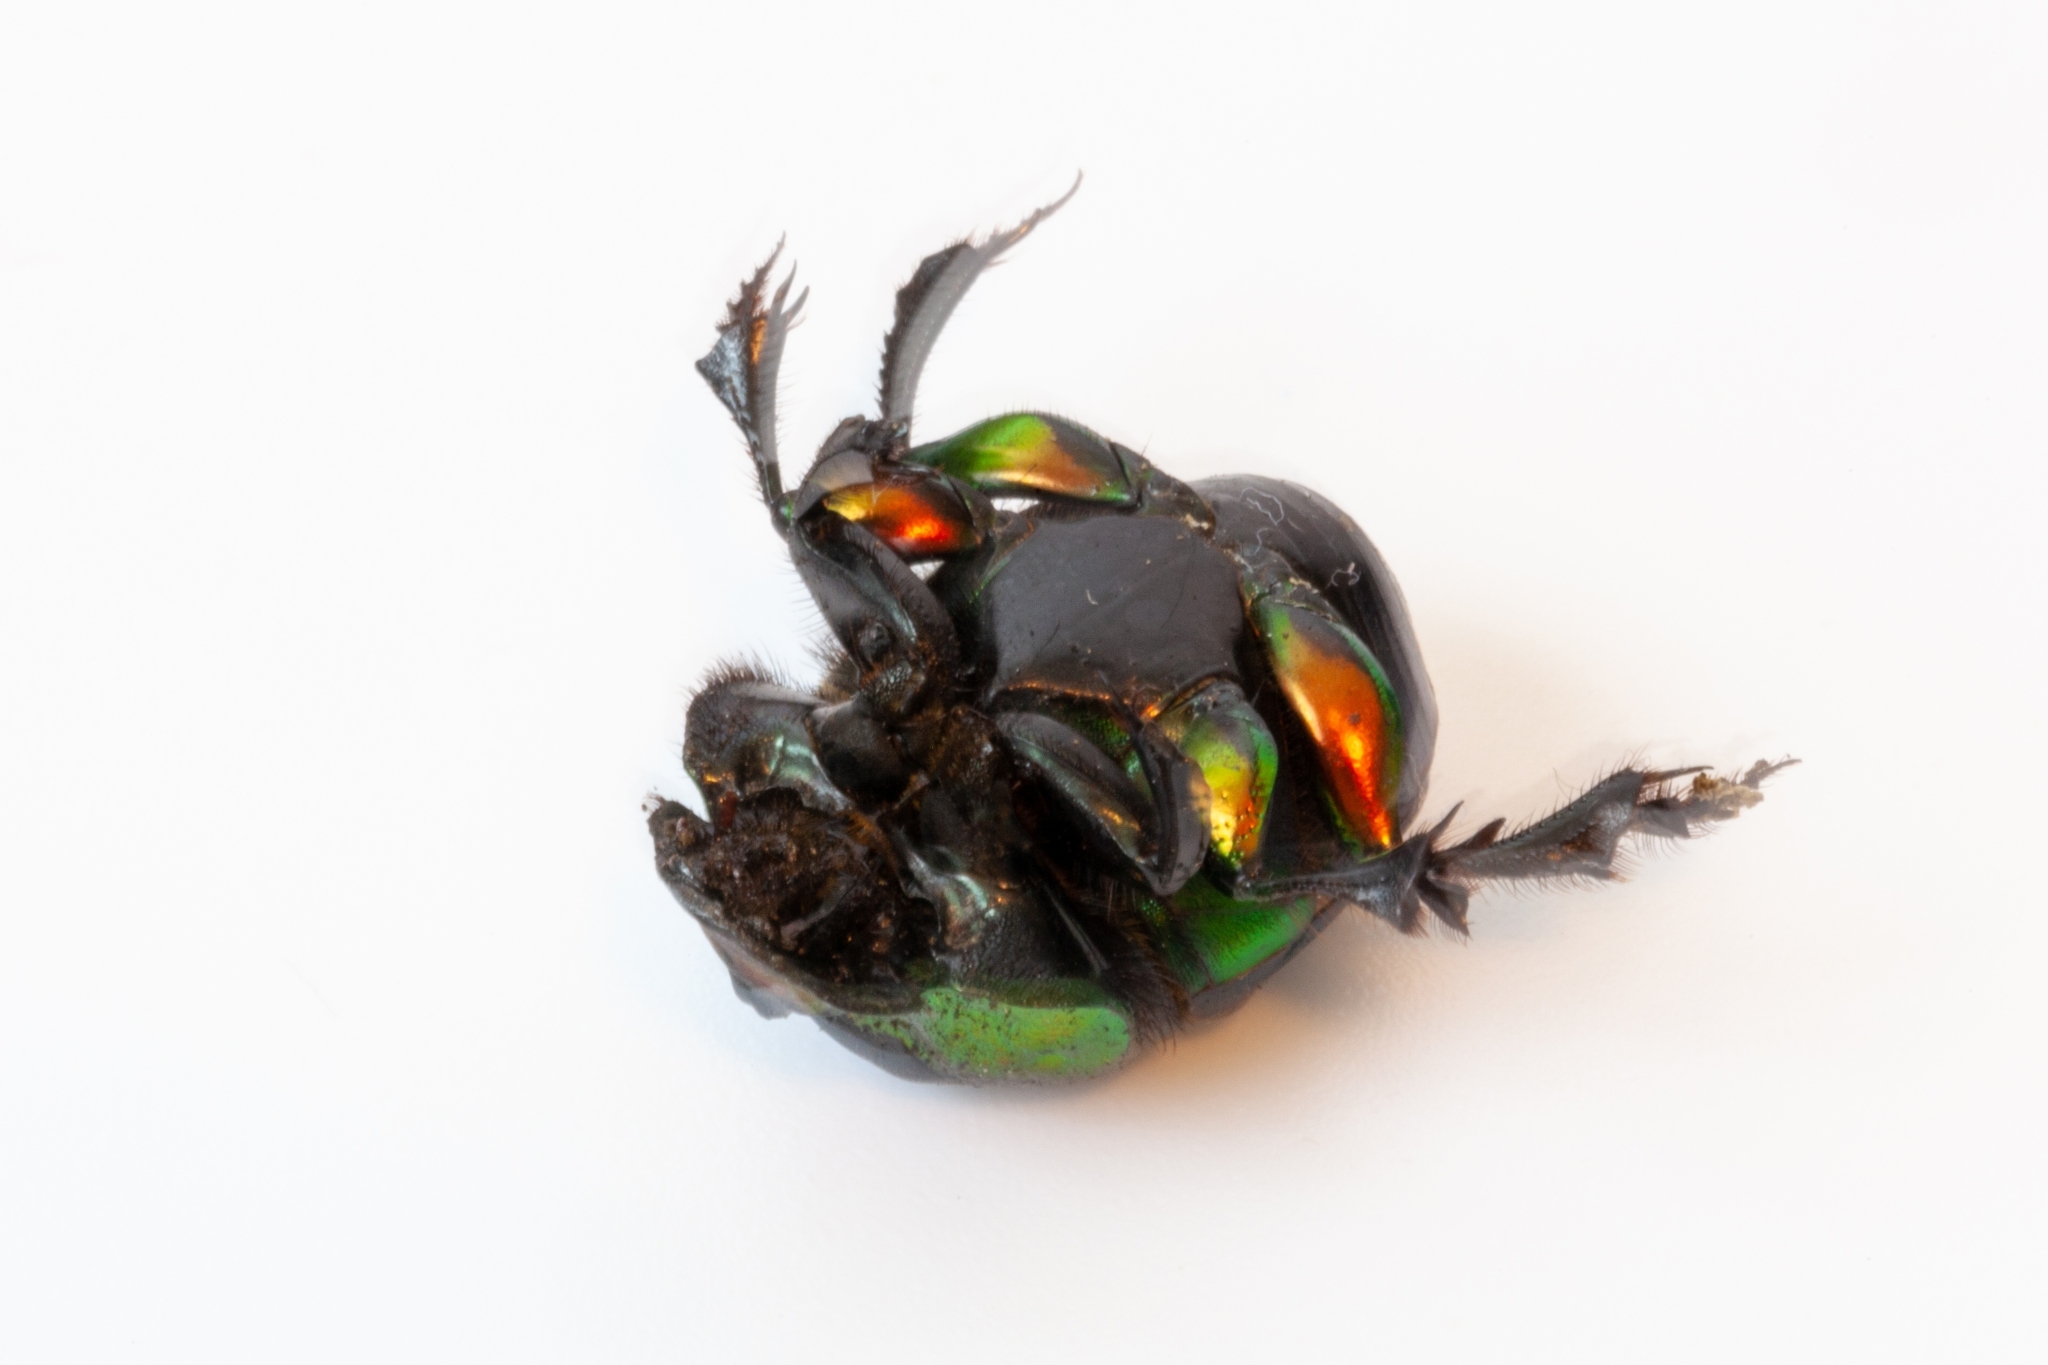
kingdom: Animalia
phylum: Arthropoda
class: Insecta
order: Coleoptera
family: Scarabaeidae
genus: Phanaeus
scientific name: Phanaeus vindex
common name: Rainbow scarab
